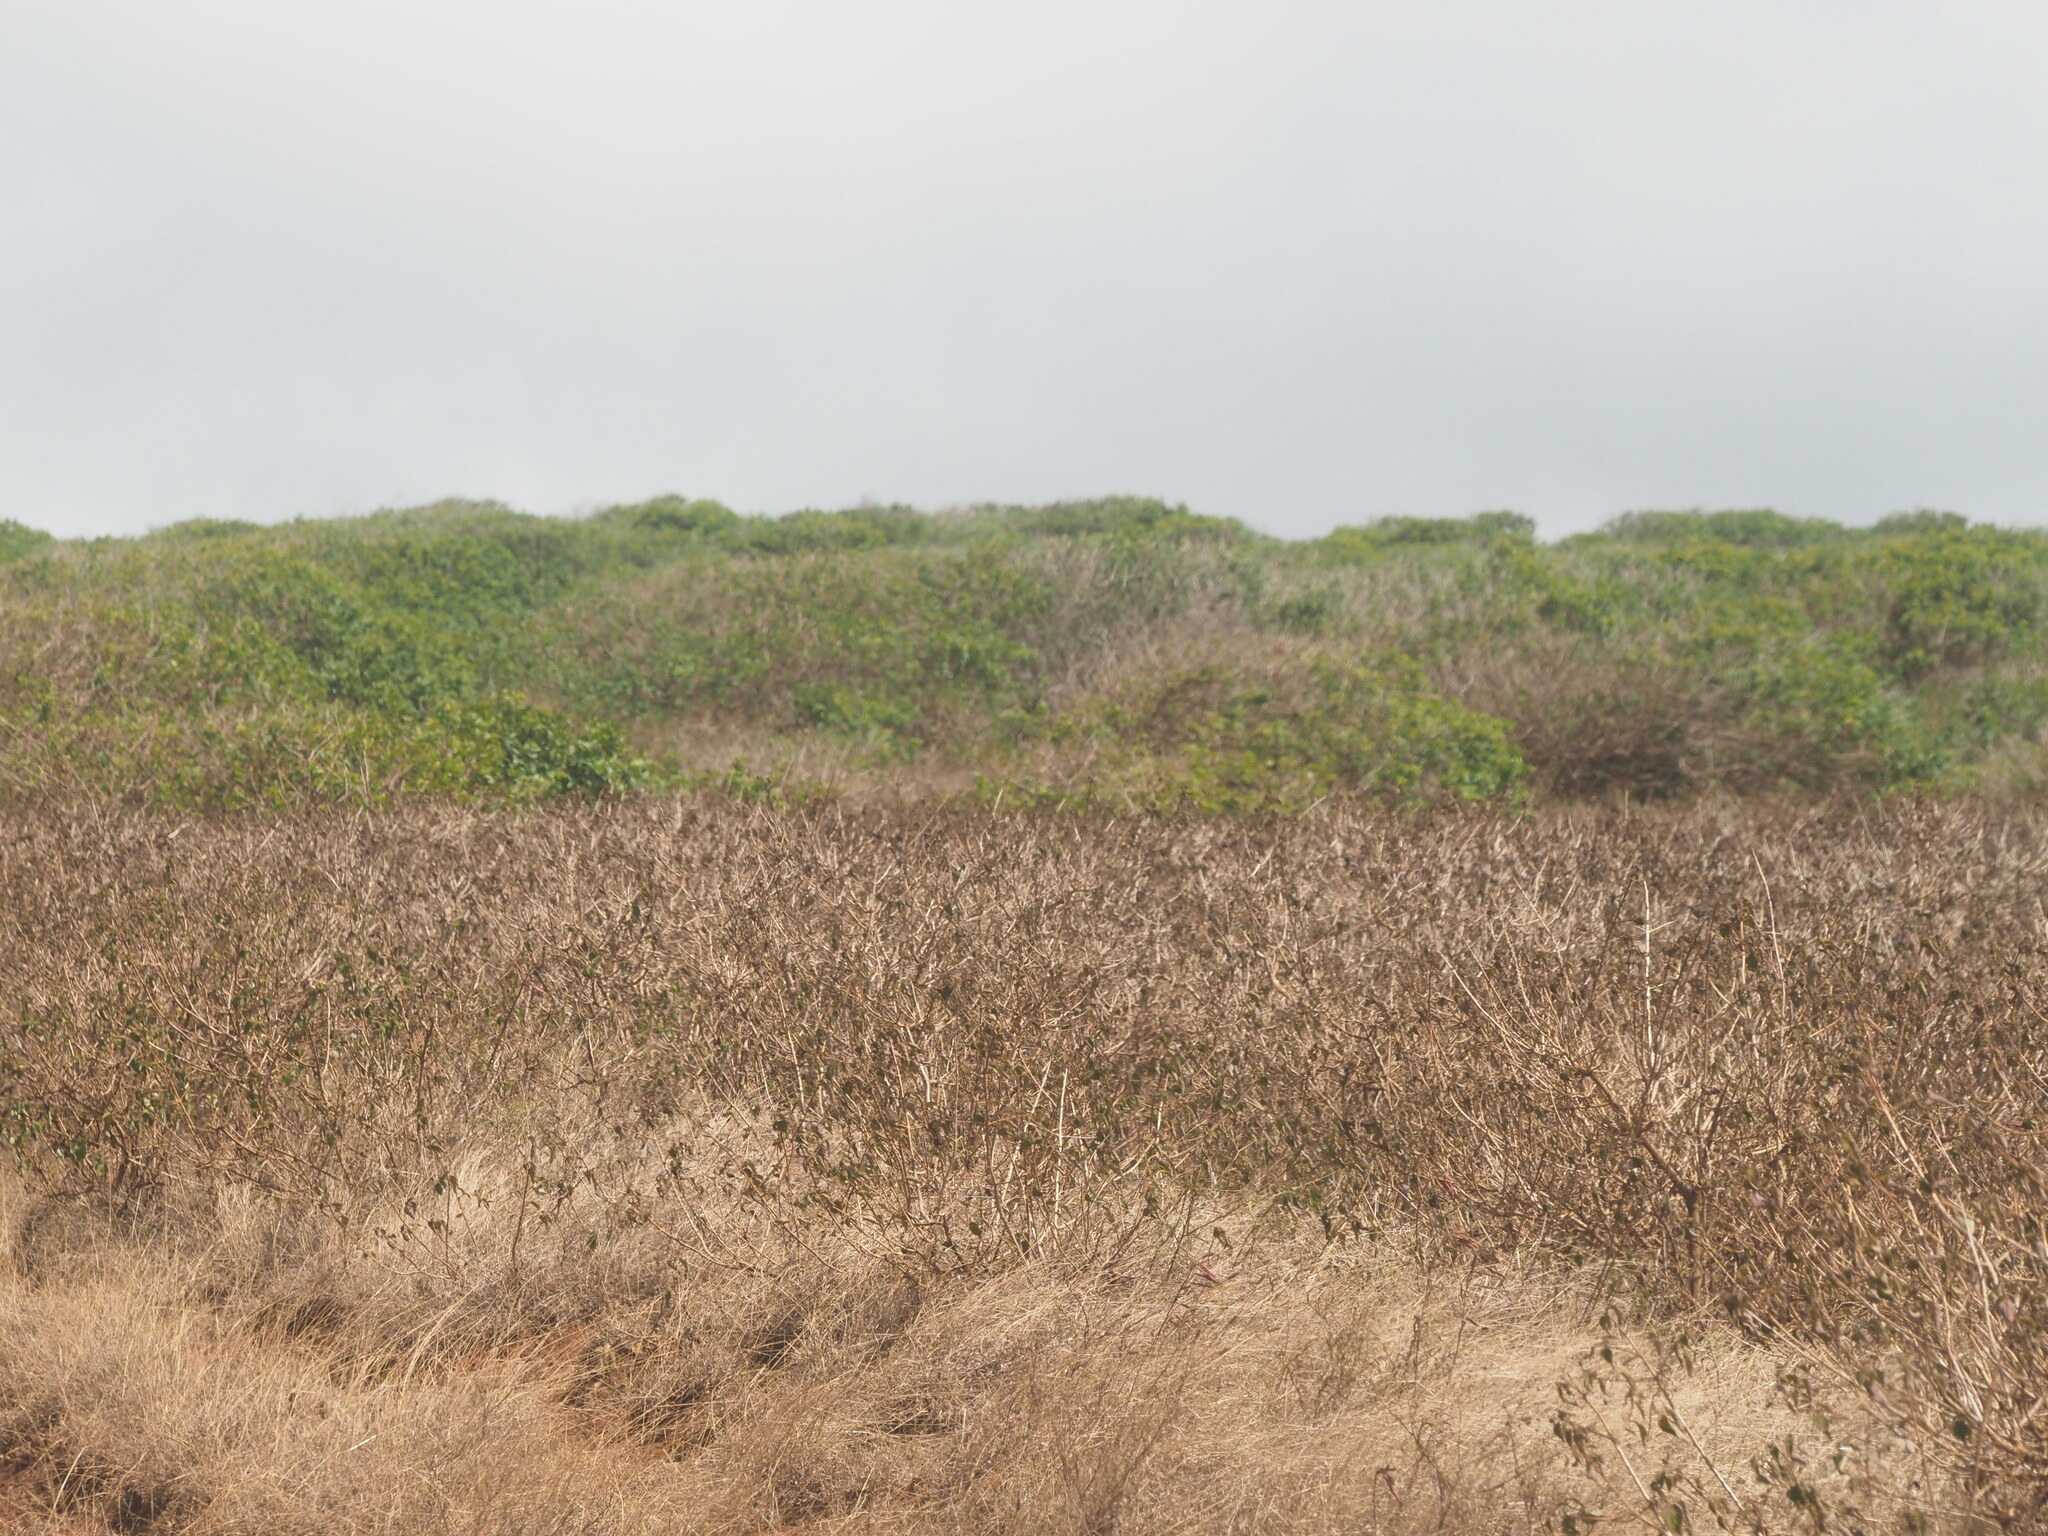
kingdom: Plantae
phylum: Tracheophyta
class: Magnoliopsida
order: Lamiales
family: Verbenaceae
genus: Lantana
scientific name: Lantana camara
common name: Lantana
